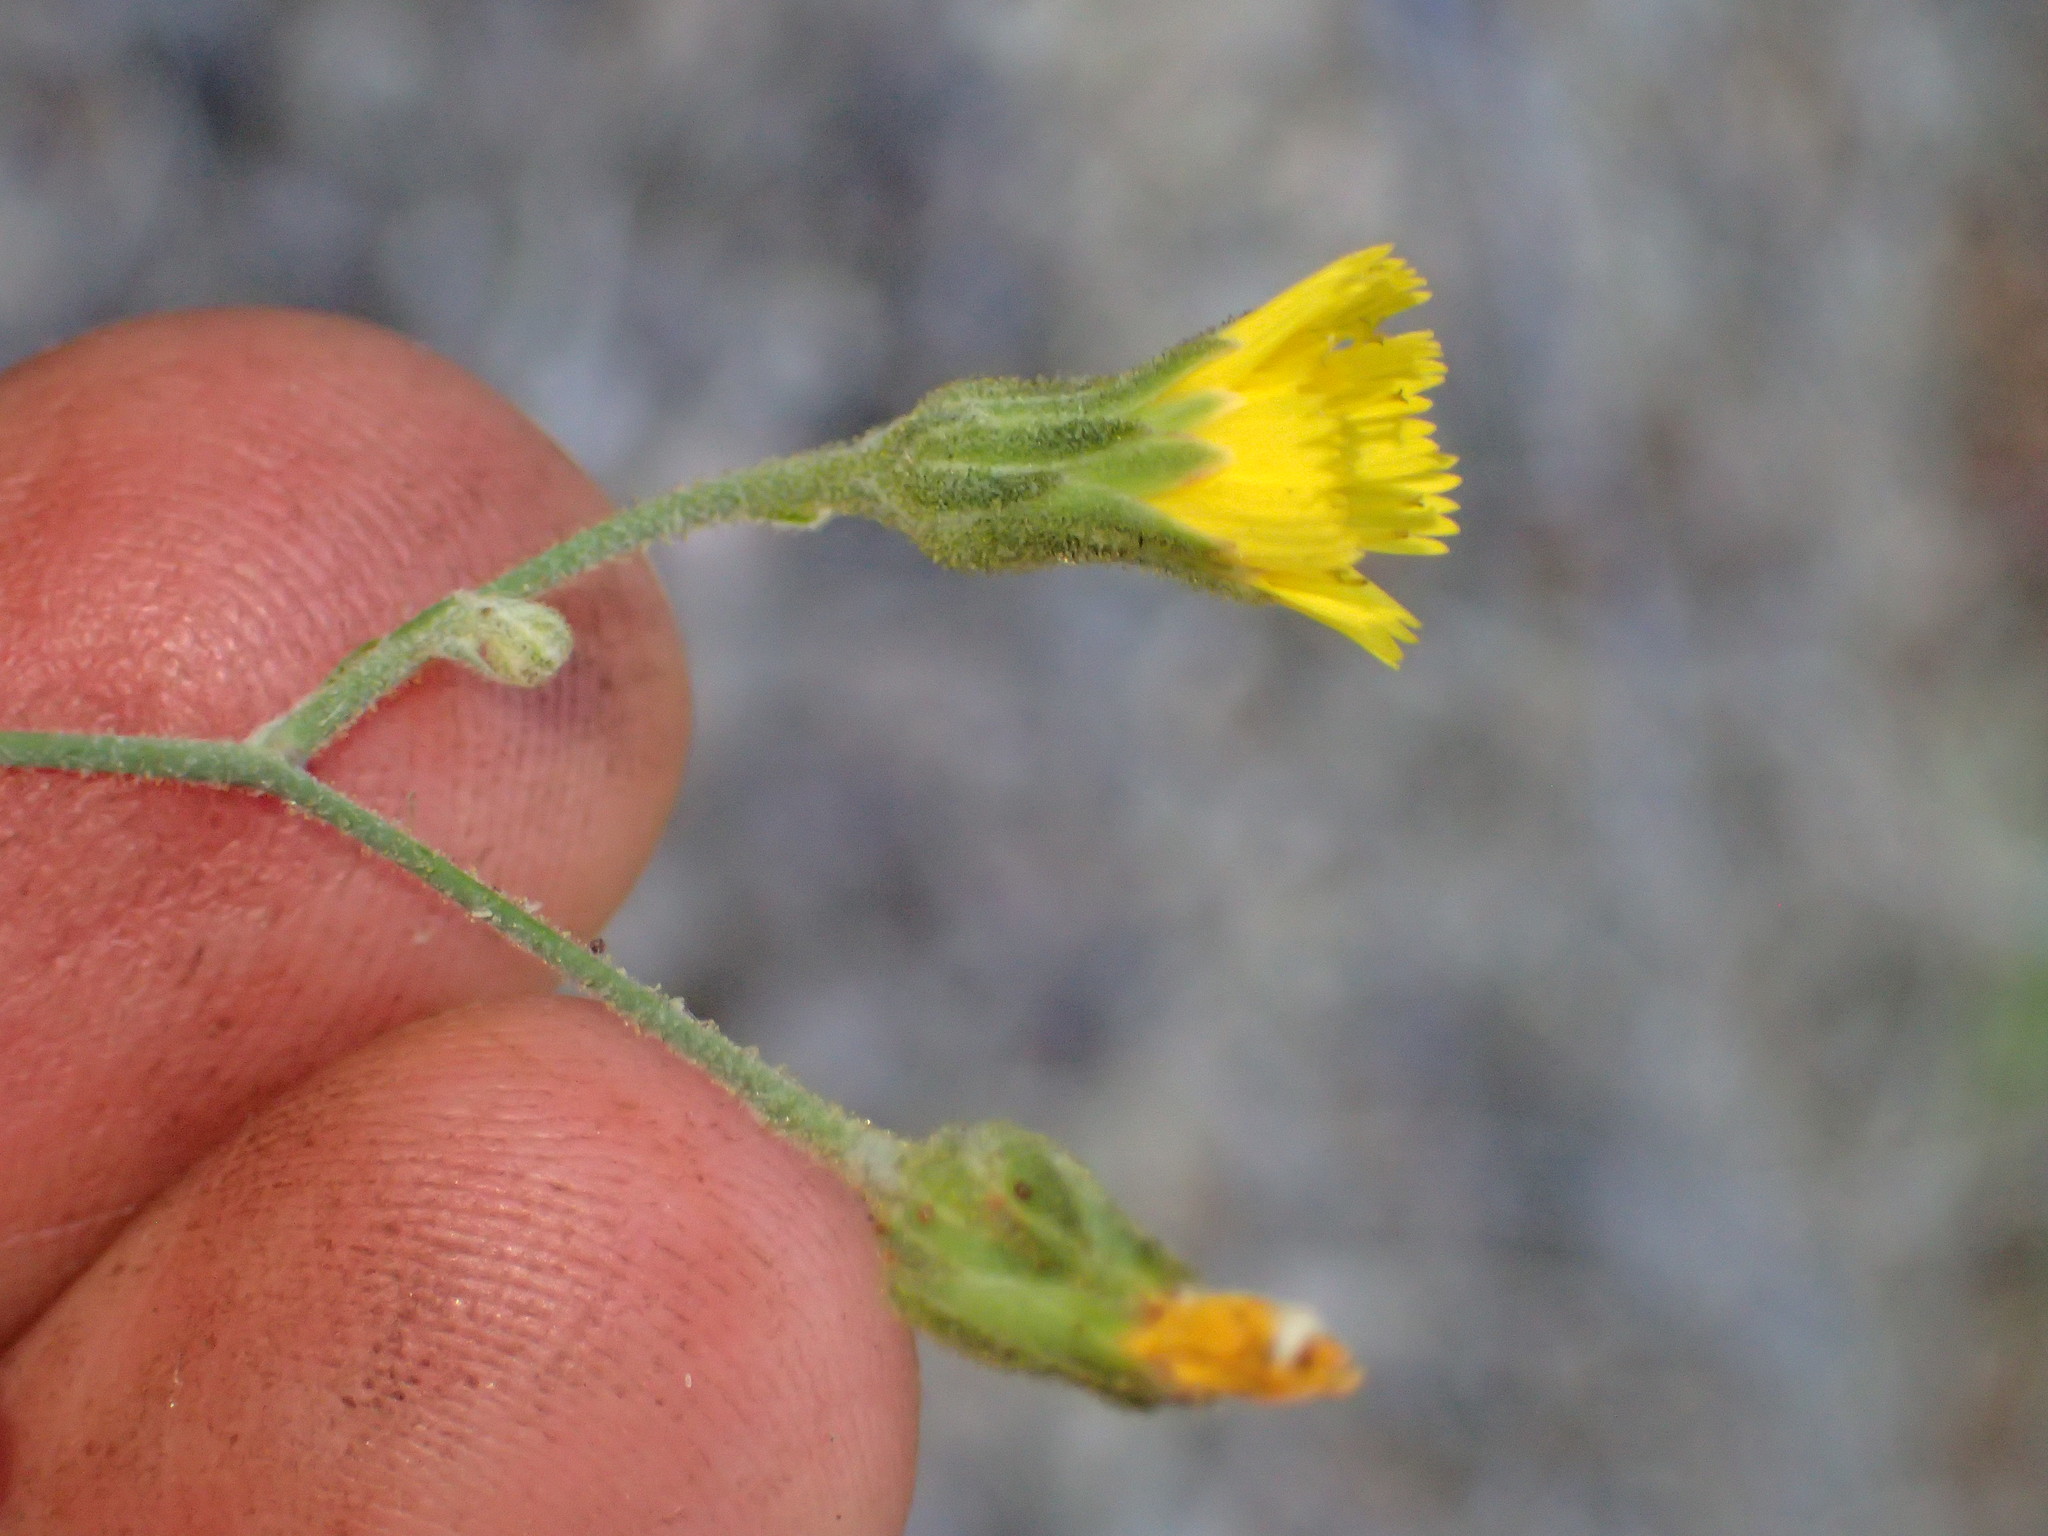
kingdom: Plantae
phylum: Tracheophyta
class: Magnoliopsida
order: Asterales
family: Asteraceae
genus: Hieracium
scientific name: Hieracium argutum
